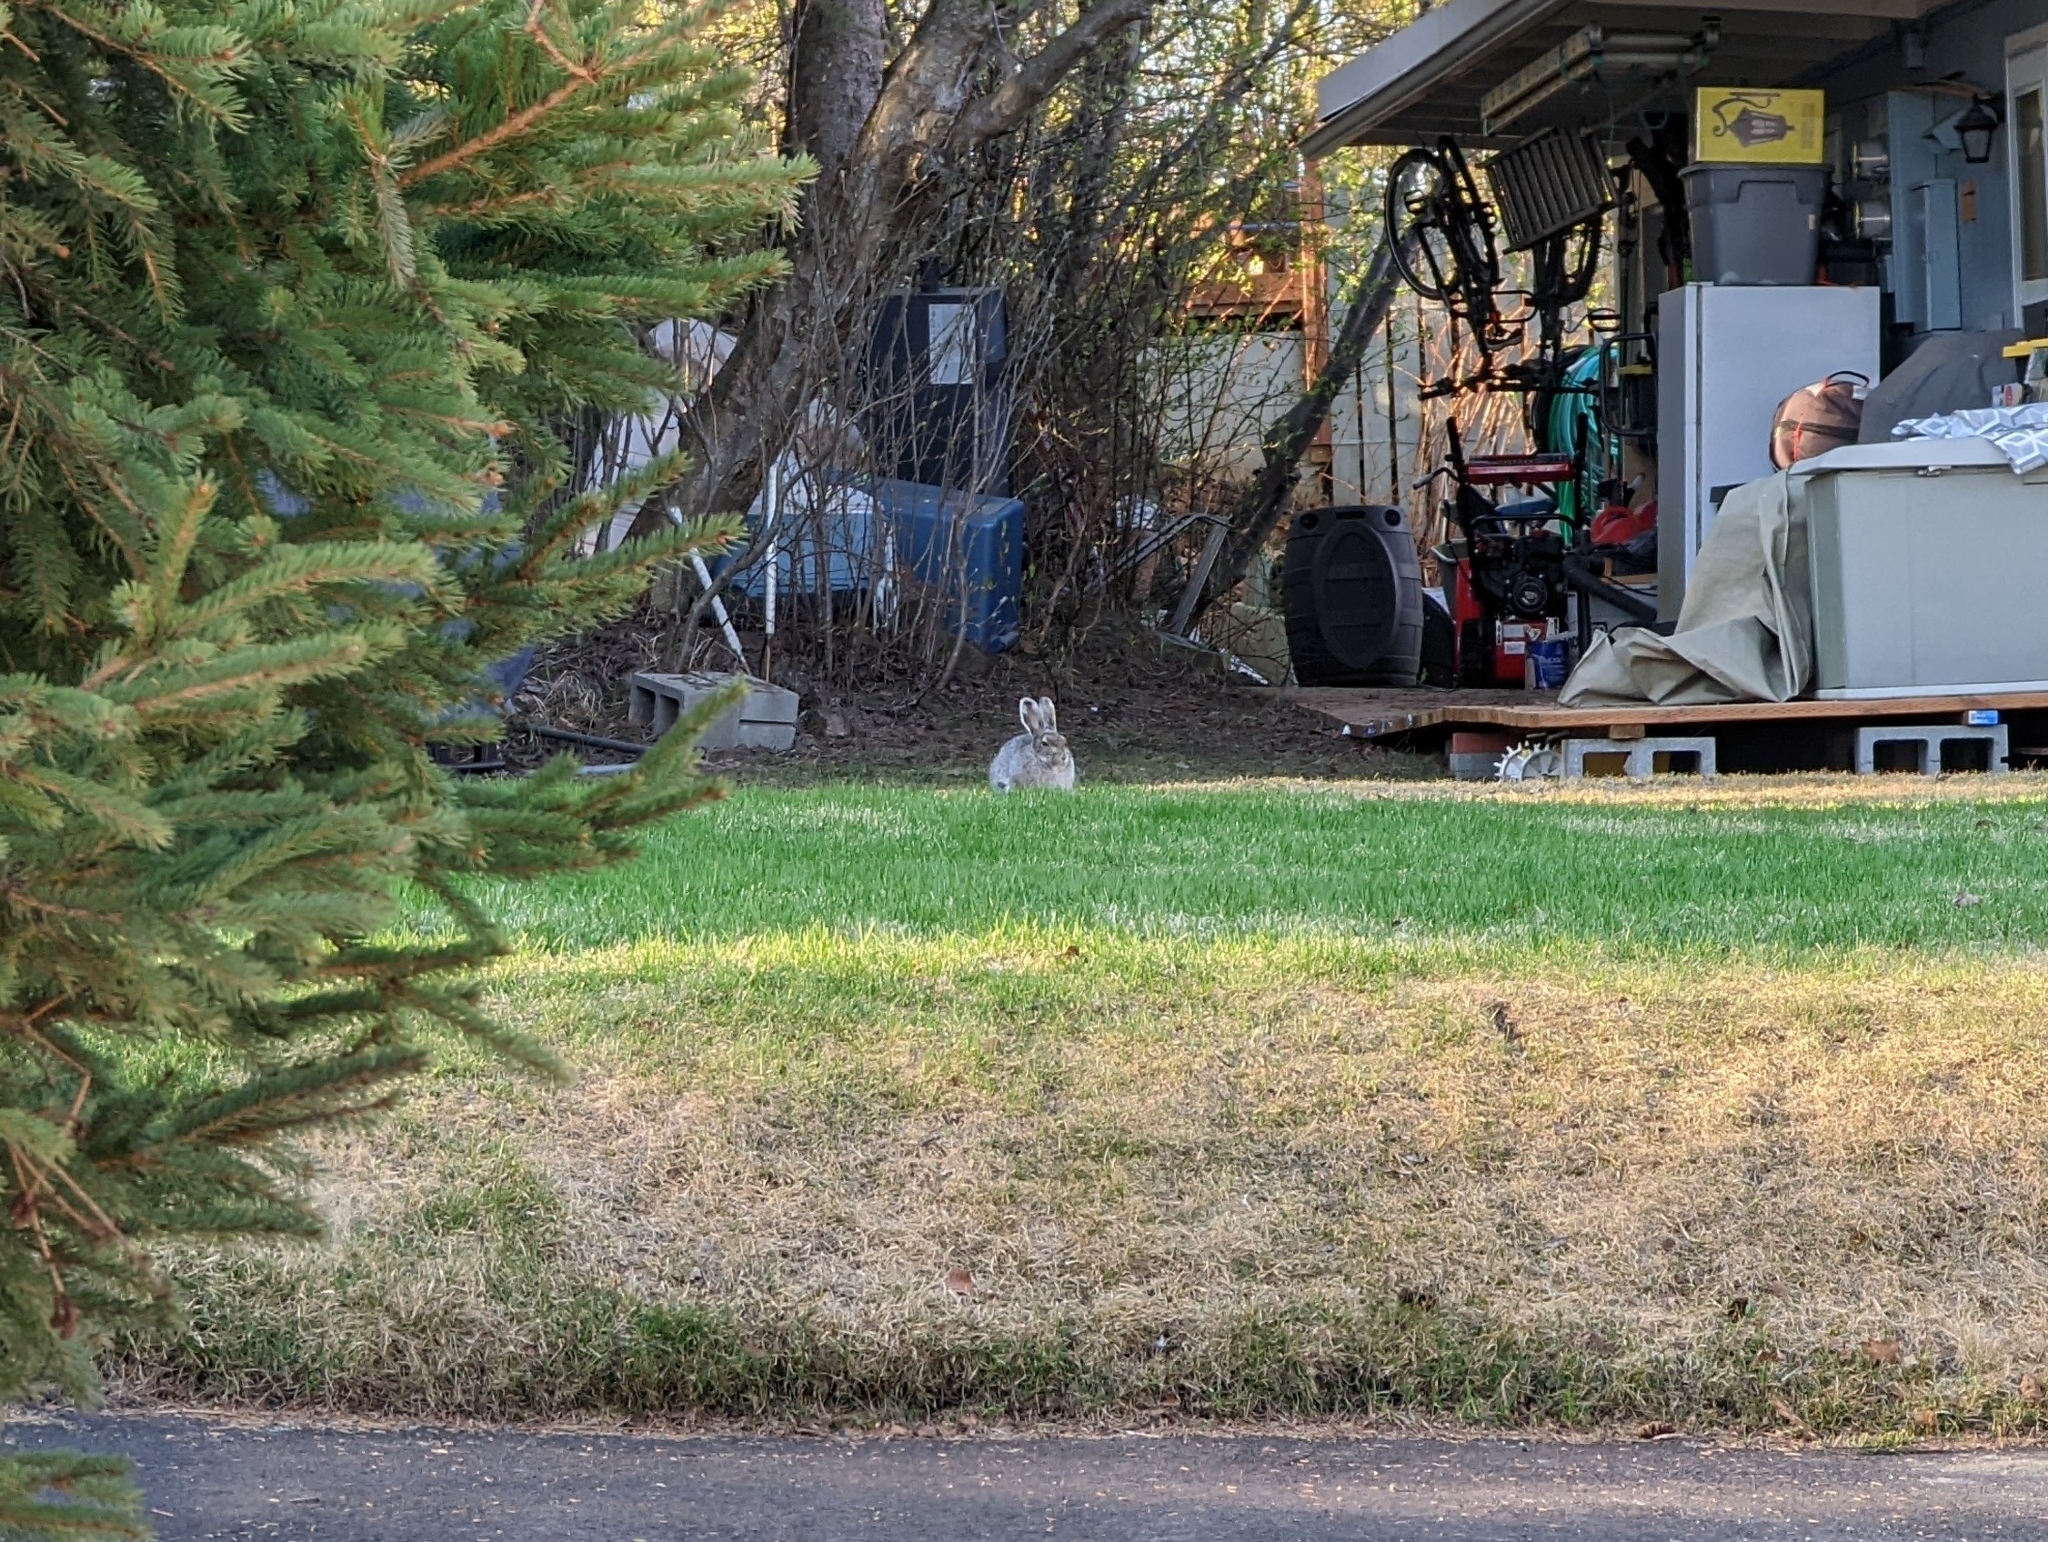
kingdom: Animalia
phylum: Chordata
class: Mammalia
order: Lagomorpha
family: Leporidae
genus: Lepus
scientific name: Lepus americanus
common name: Snowshoe hare
